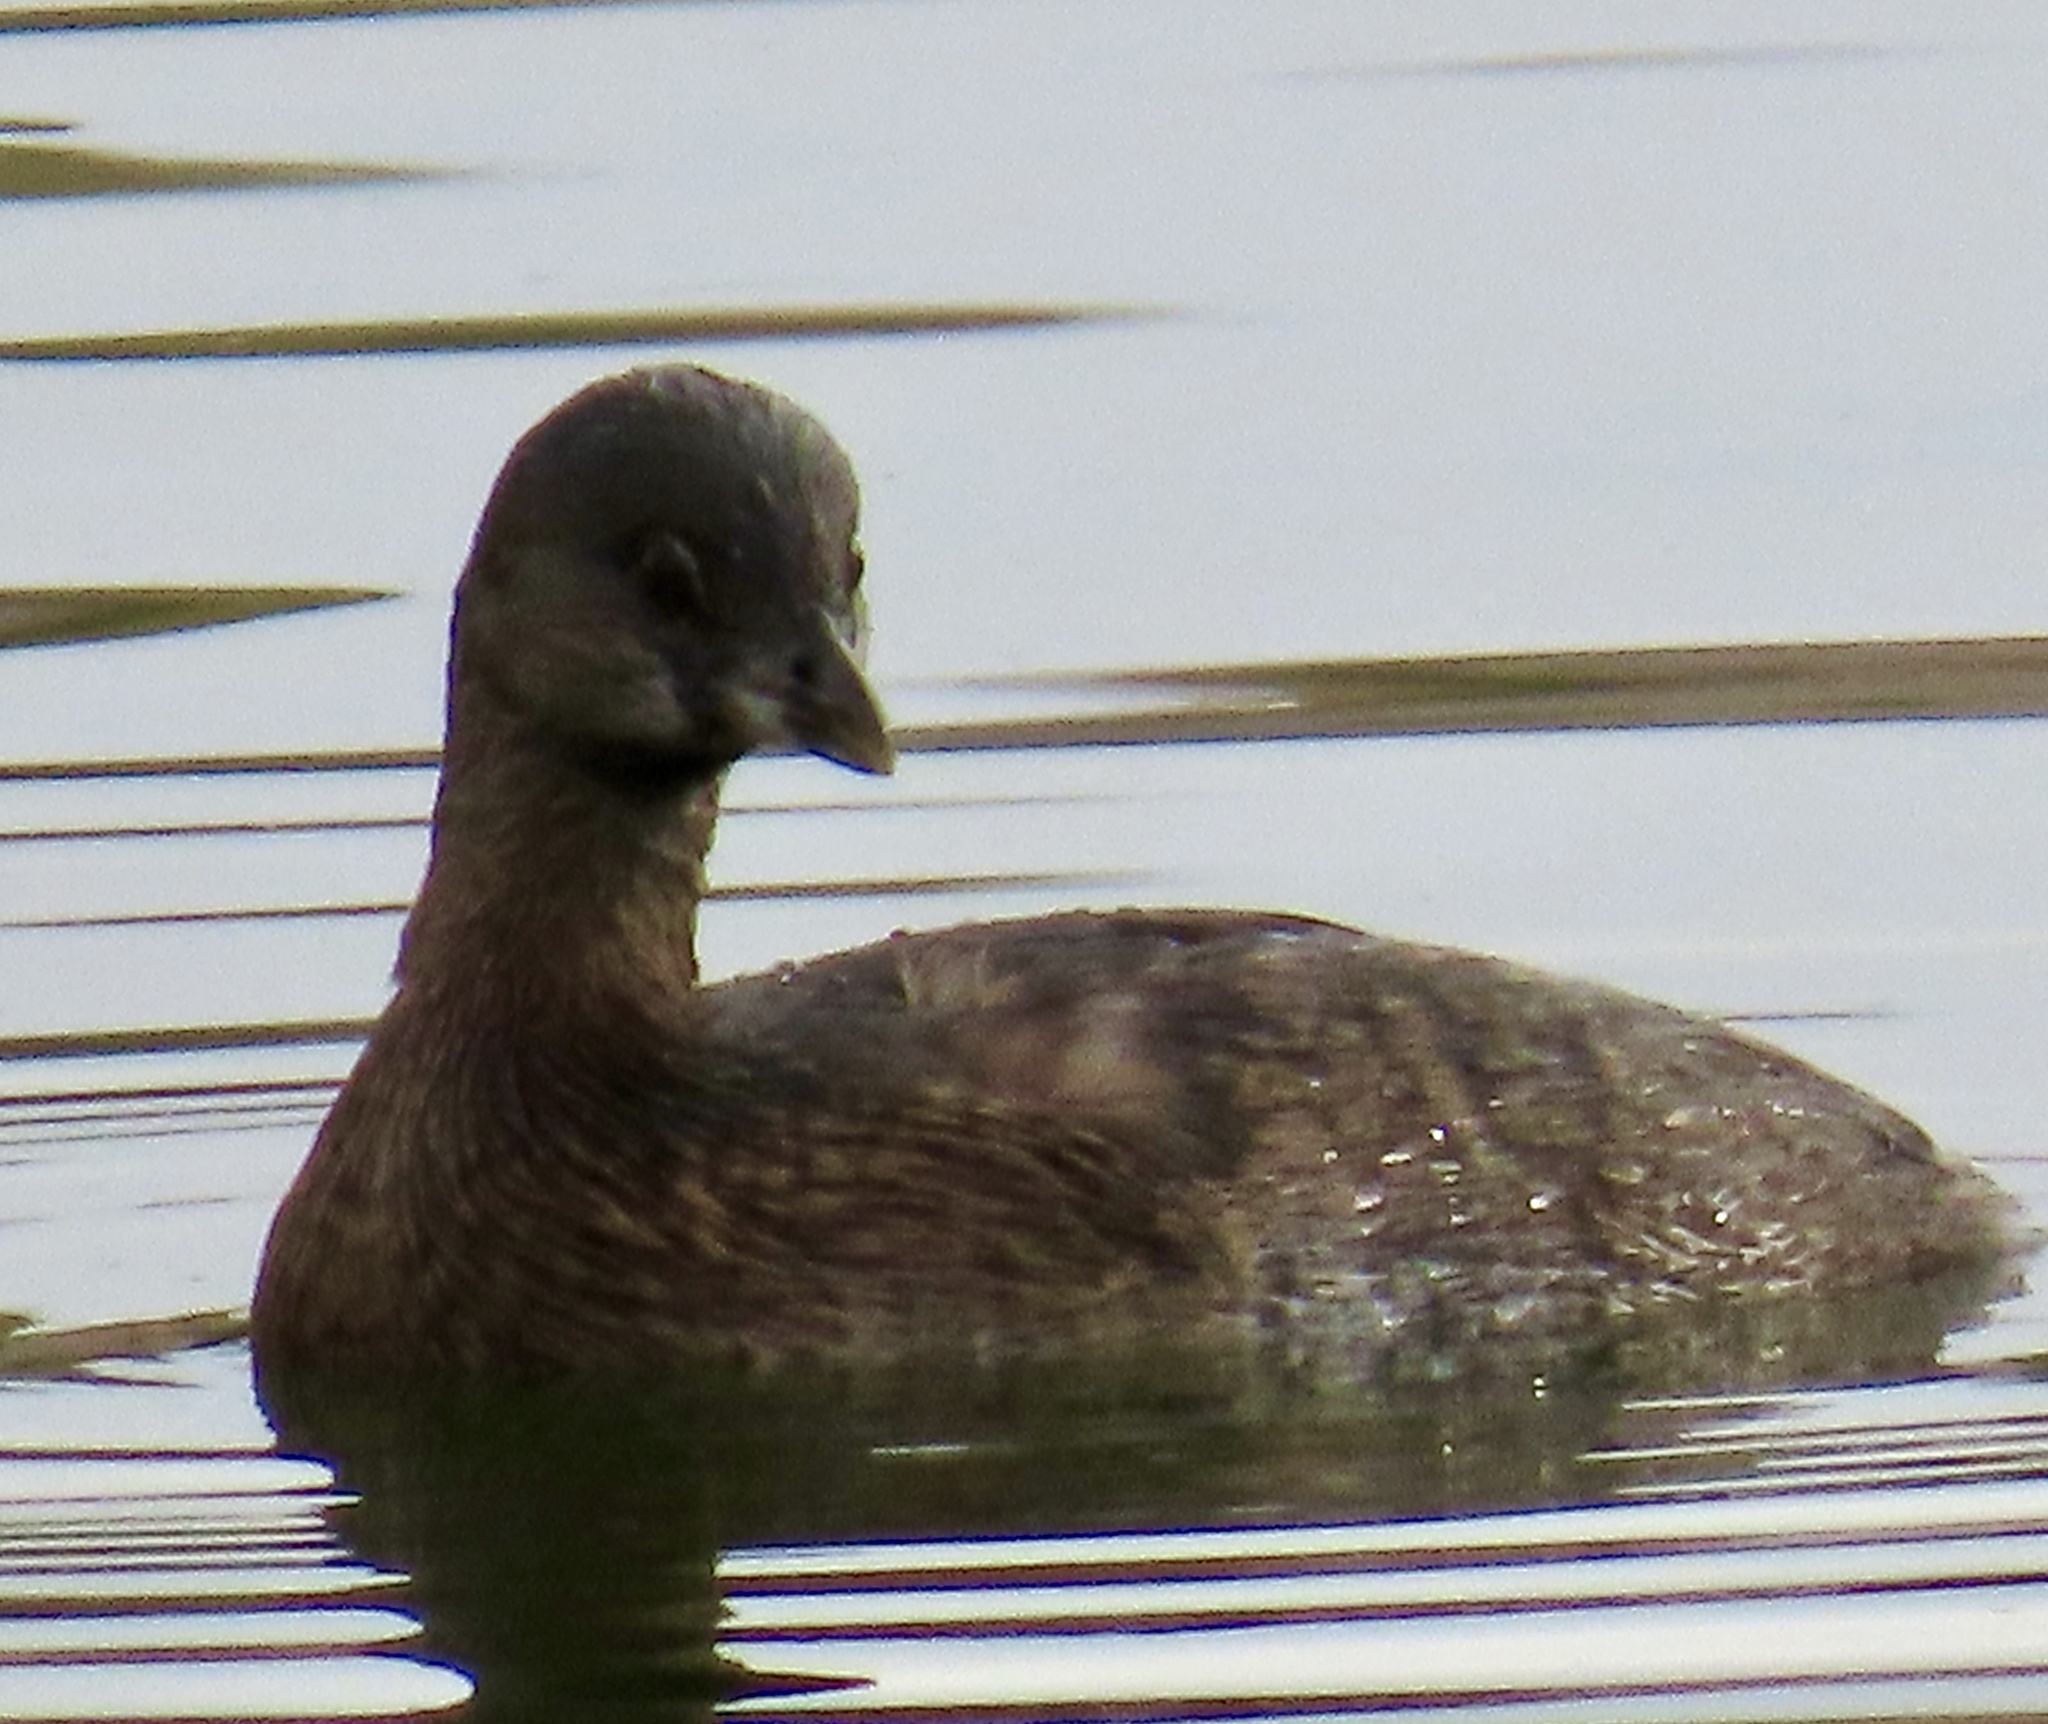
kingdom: Animalia
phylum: Chordata
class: Aves
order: Podicipediformes
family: Podicipedidae
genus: Podilymbus
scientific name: Podilymbus podiceps
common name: Pied-billed grebe
